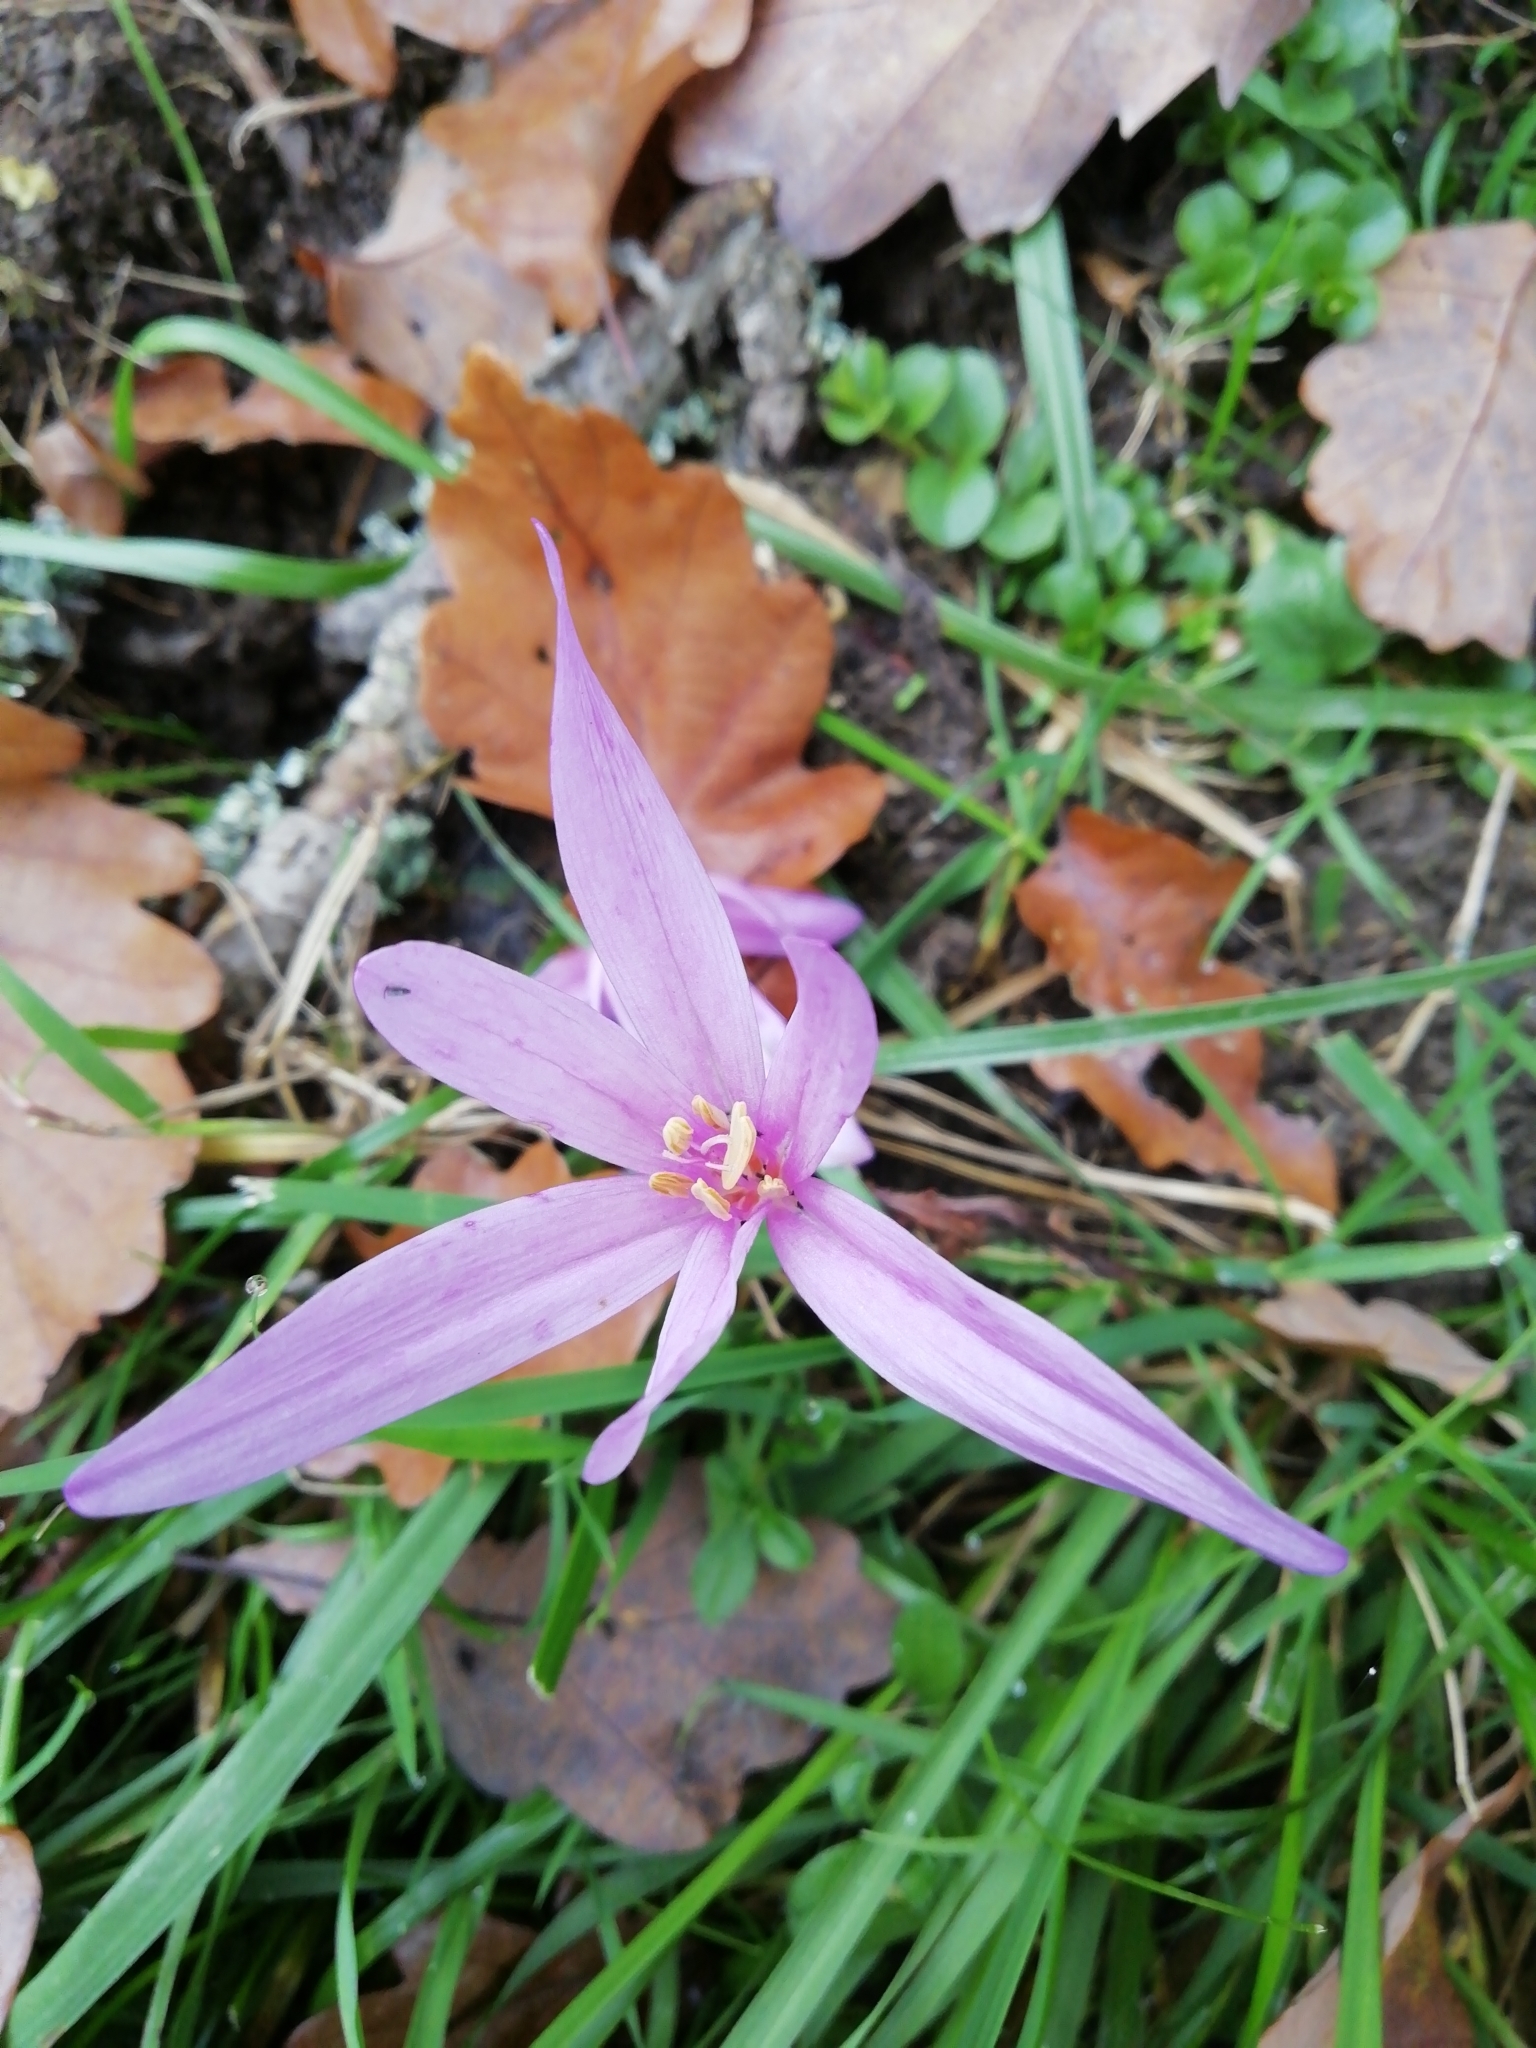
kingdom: Plantae
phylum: Tracheophyta
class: Liliopsida
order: Liliales
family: Colchicaceae
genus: Colchicum
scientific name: Colchicum autumnale
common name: Autumn crocus
